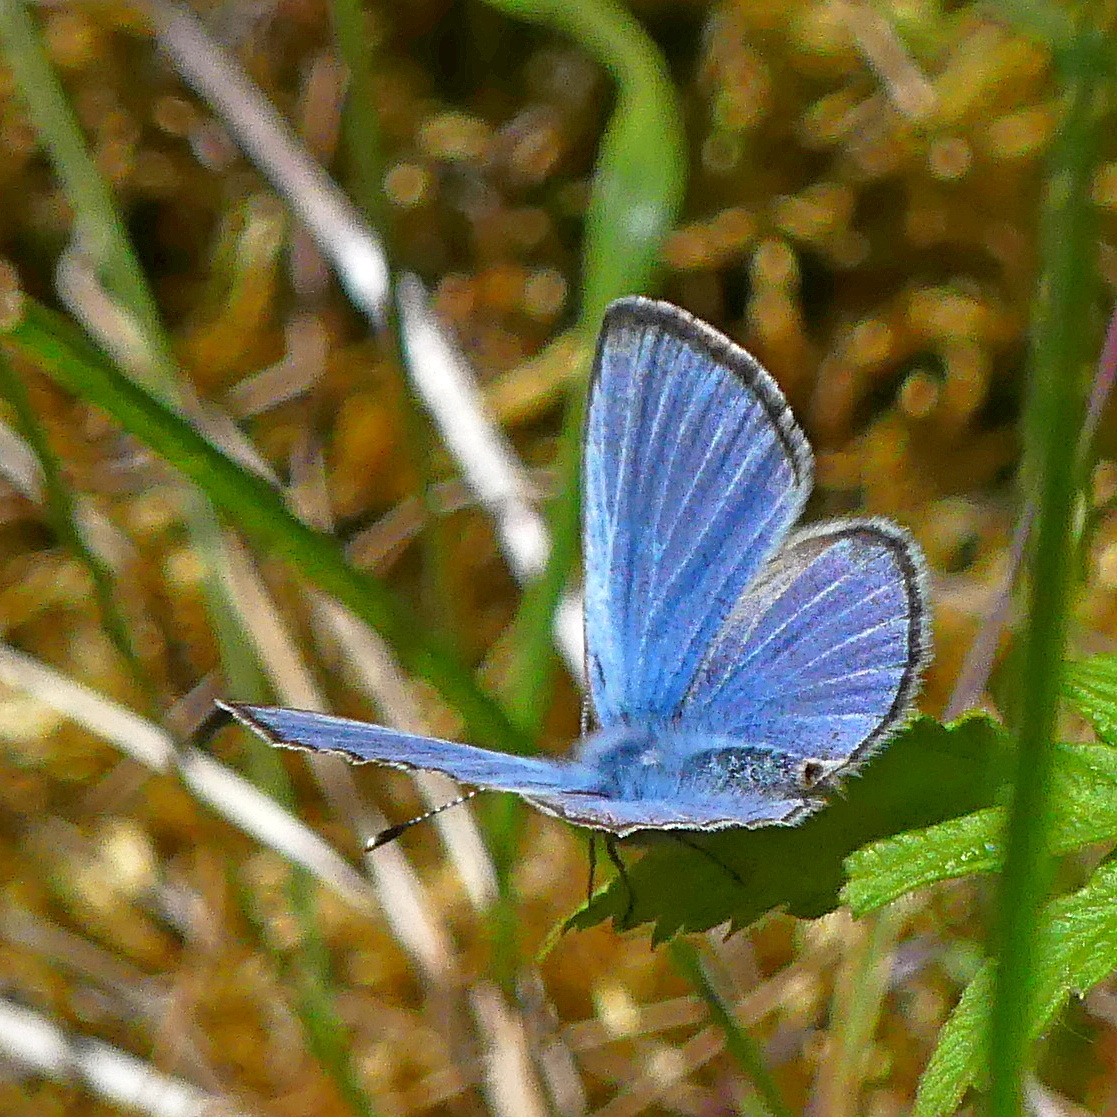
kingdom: Animalia
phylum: Arthropoda
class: Insecta
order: Lepidoptera
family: Lycaenidae
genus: Glaucopsyche
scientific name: Glaucopsyche lygdamus
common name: Silvery blue
